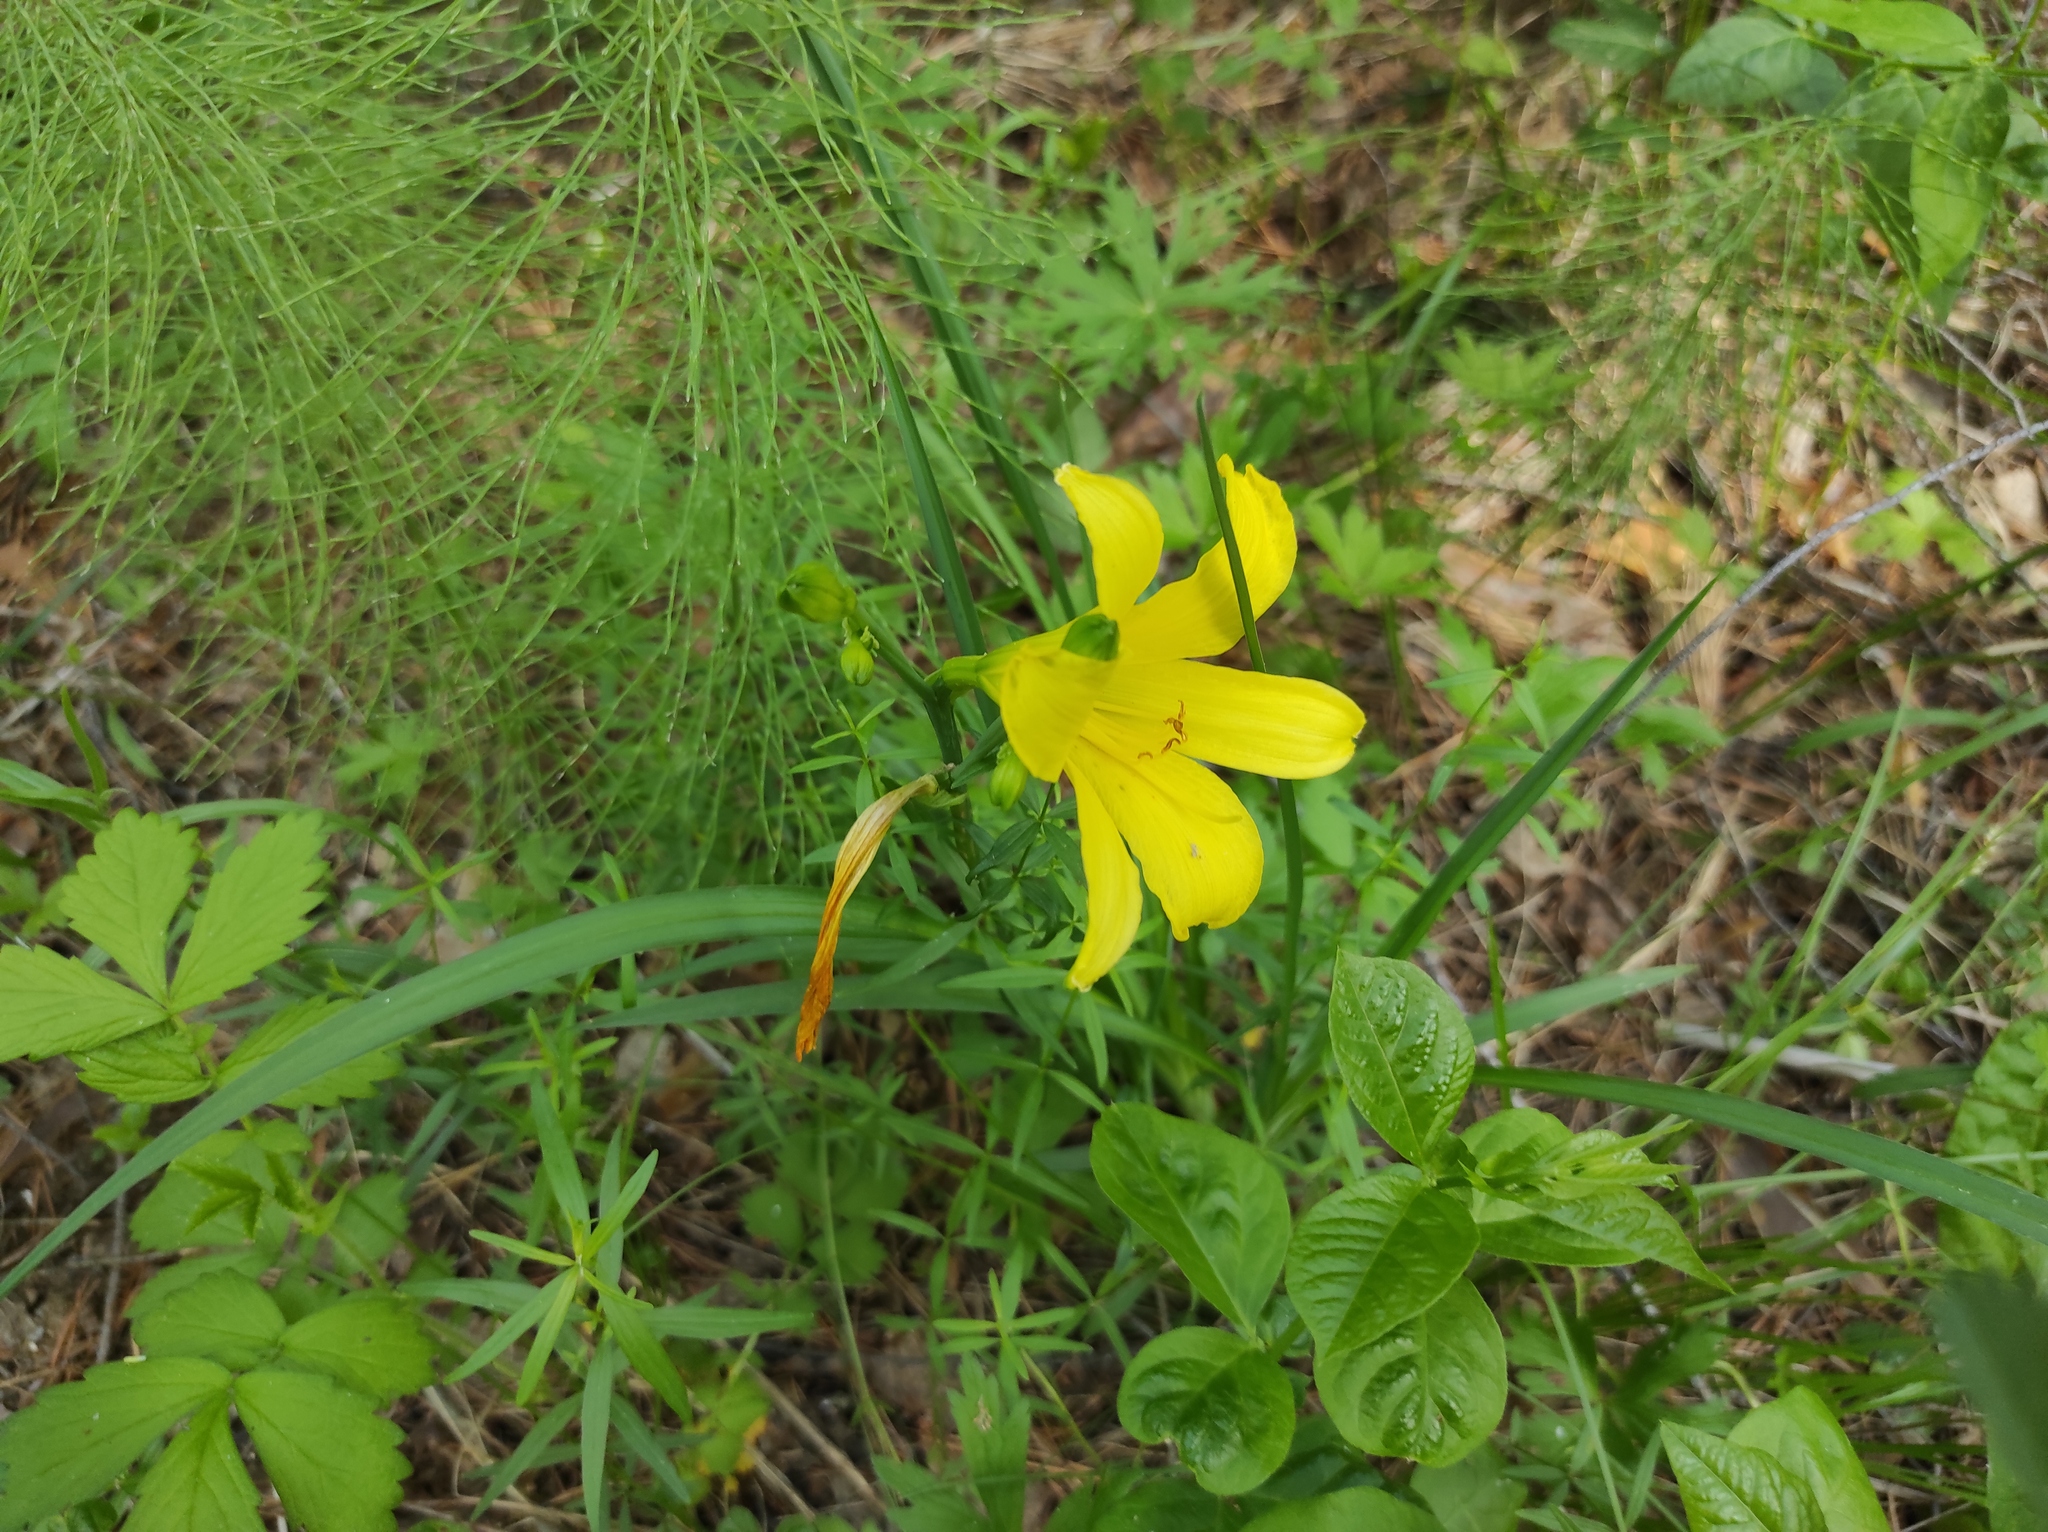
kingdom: Plantae
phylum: Tracheophyta
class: Magnoliopsida
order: Fabales
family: Fabaceae
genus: Vicia
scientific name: Vicia unijuga
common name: Two-leaf vetch
